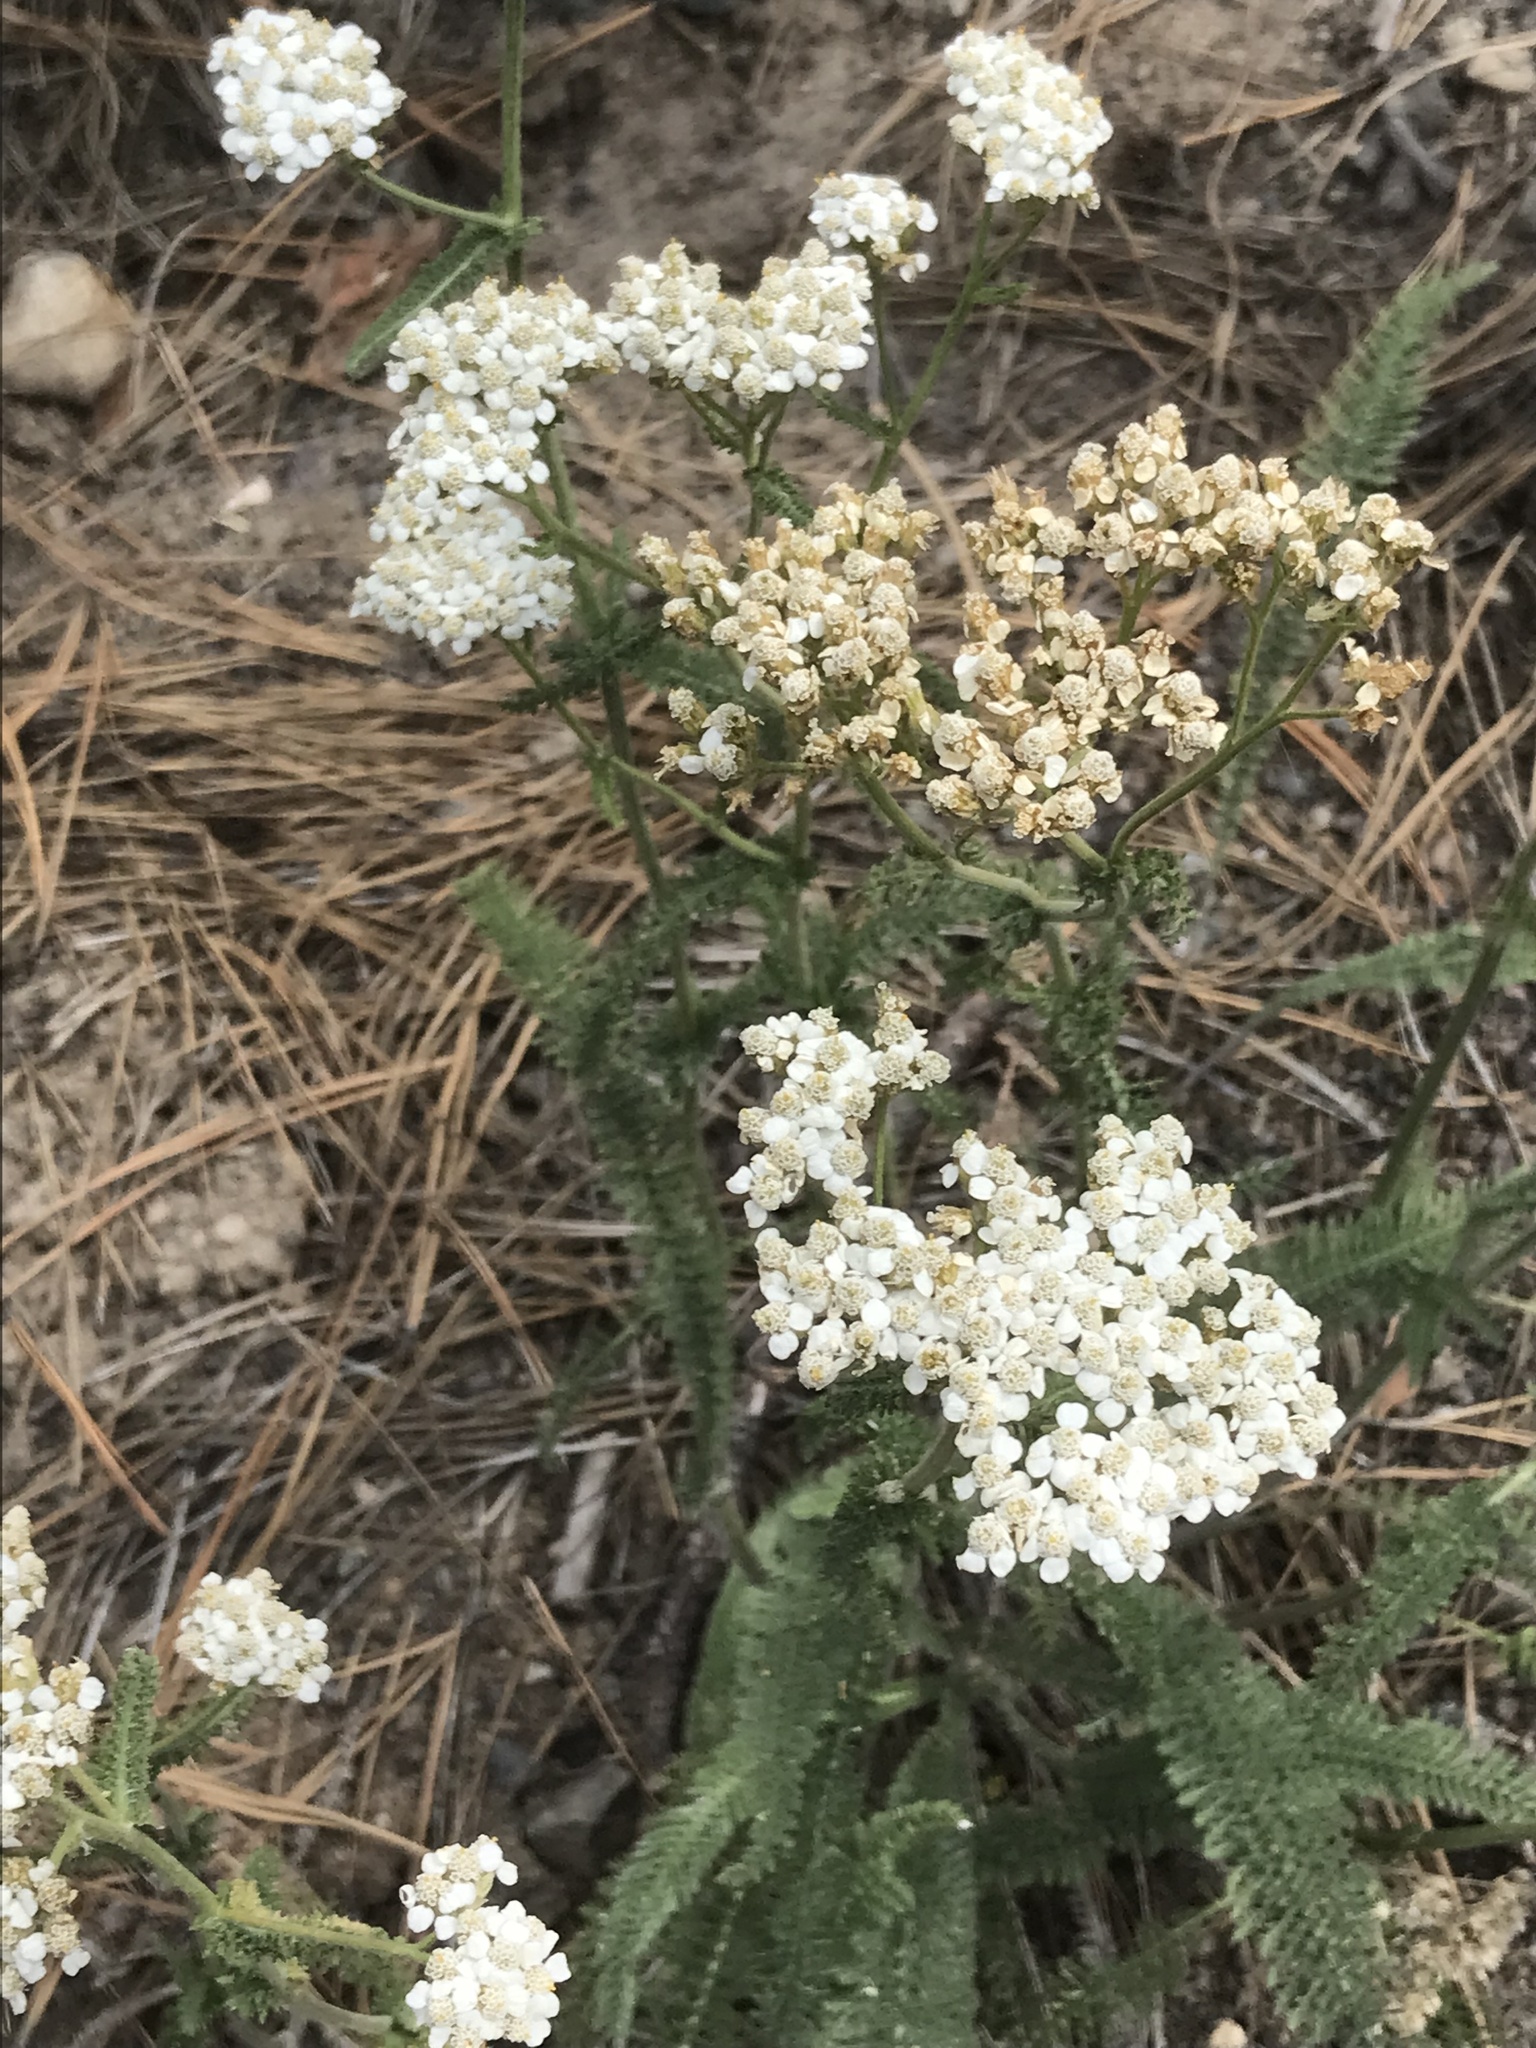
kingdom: Plantae
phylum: Tracheophyta
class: Magnoliopsida
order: Asterales
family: Asteraceae
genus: Achillea
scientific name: Achillea millefolium
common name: Yarrow
